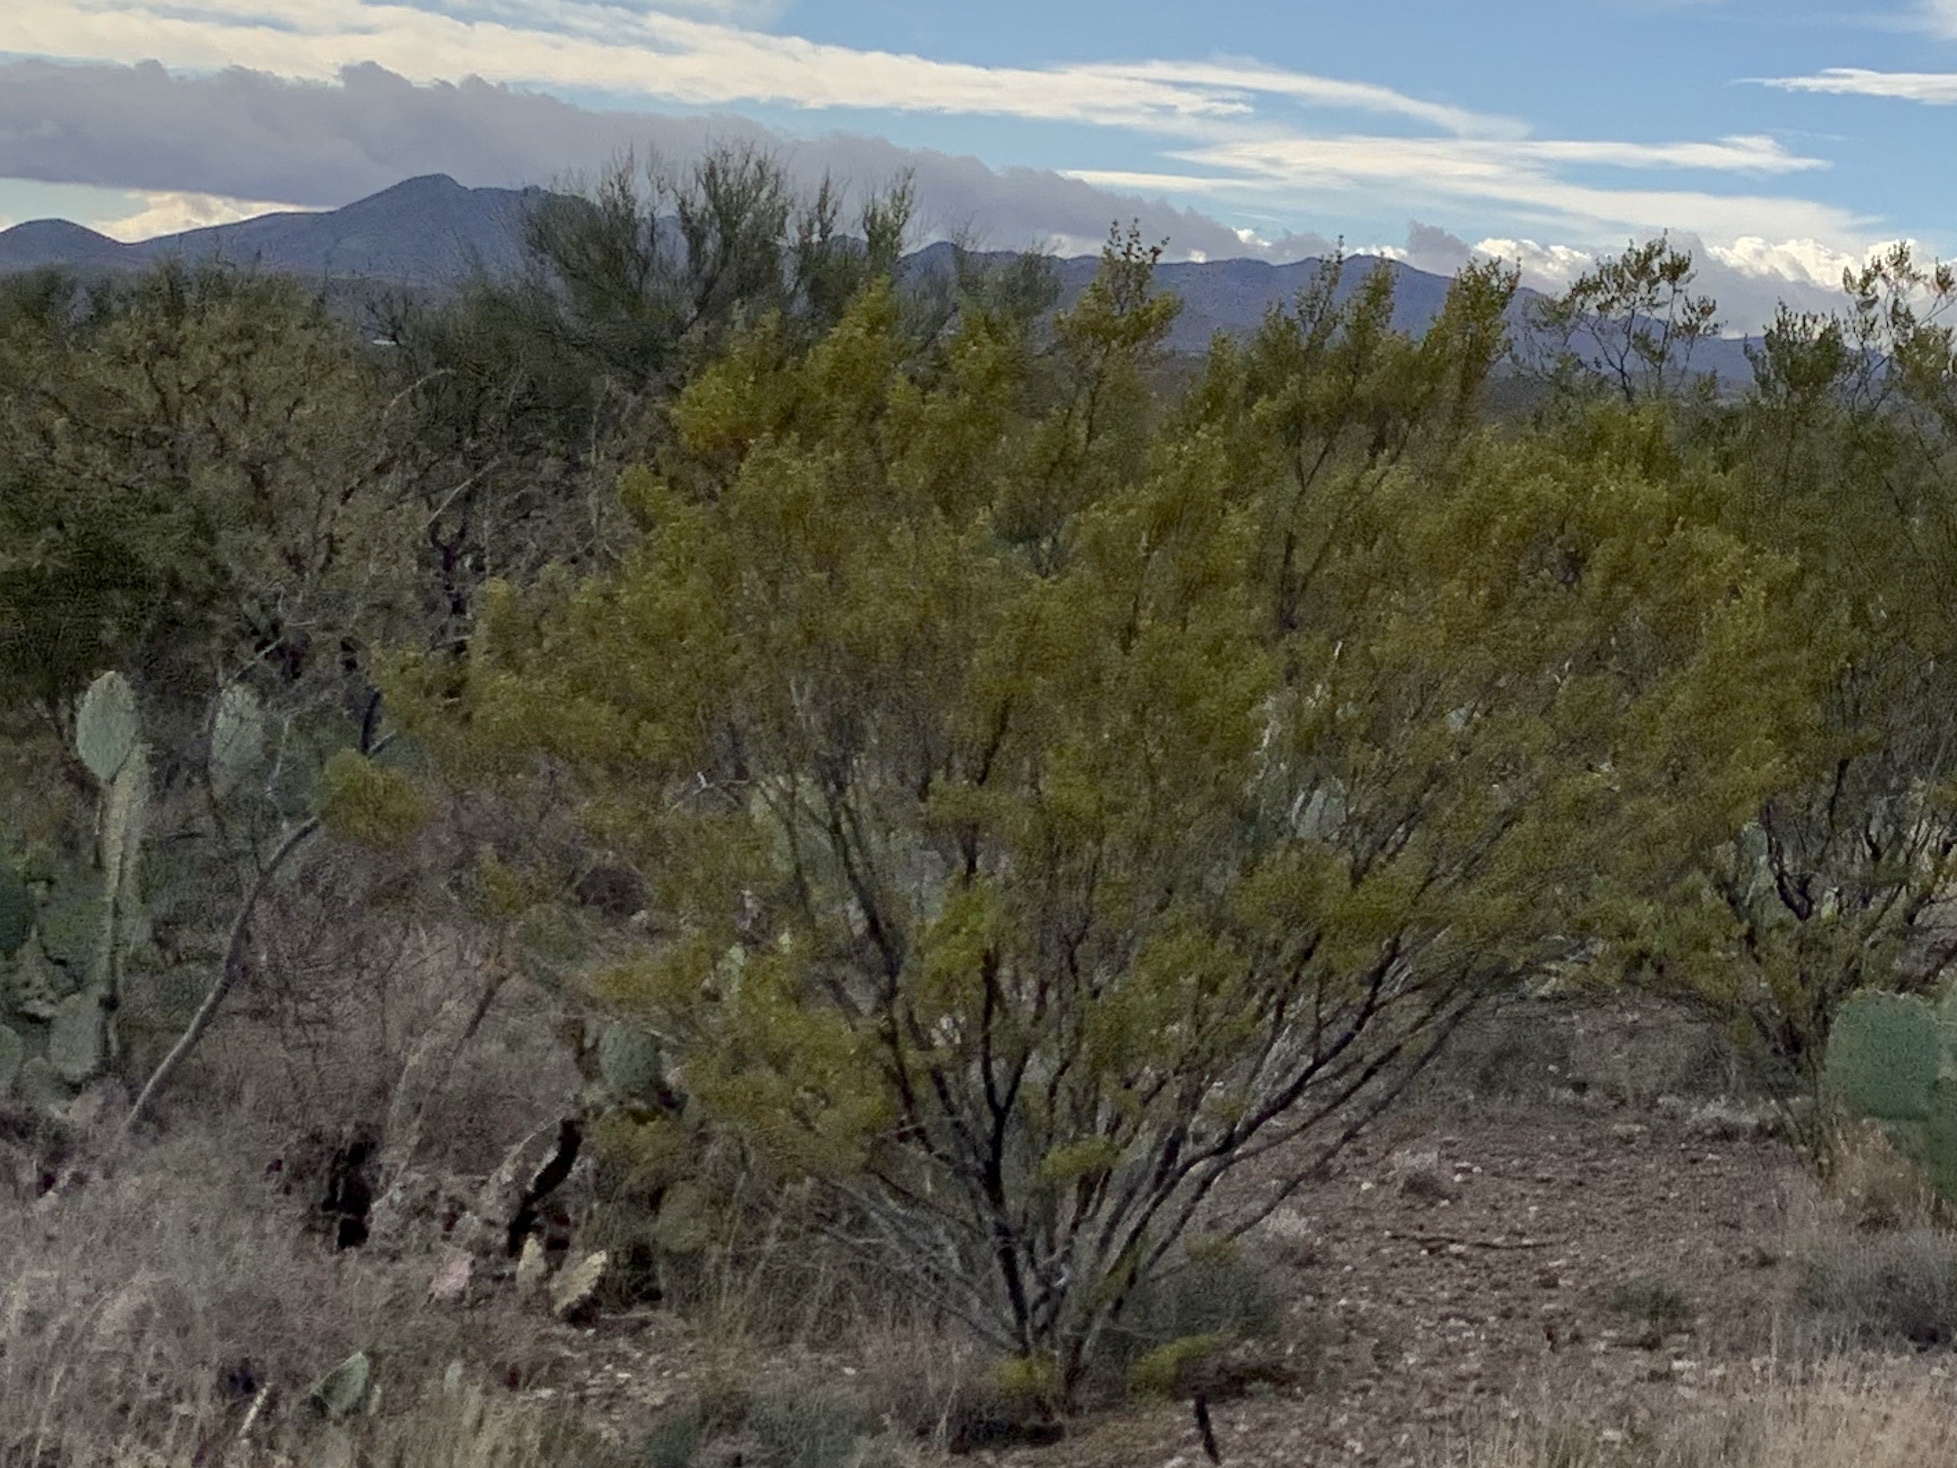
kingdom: Plantae
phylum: Tracheophyta
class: Magnoliopsida
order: Zygophyllales
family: Zygophyllaceae
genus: Larrea
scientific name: Larrea tridentata
